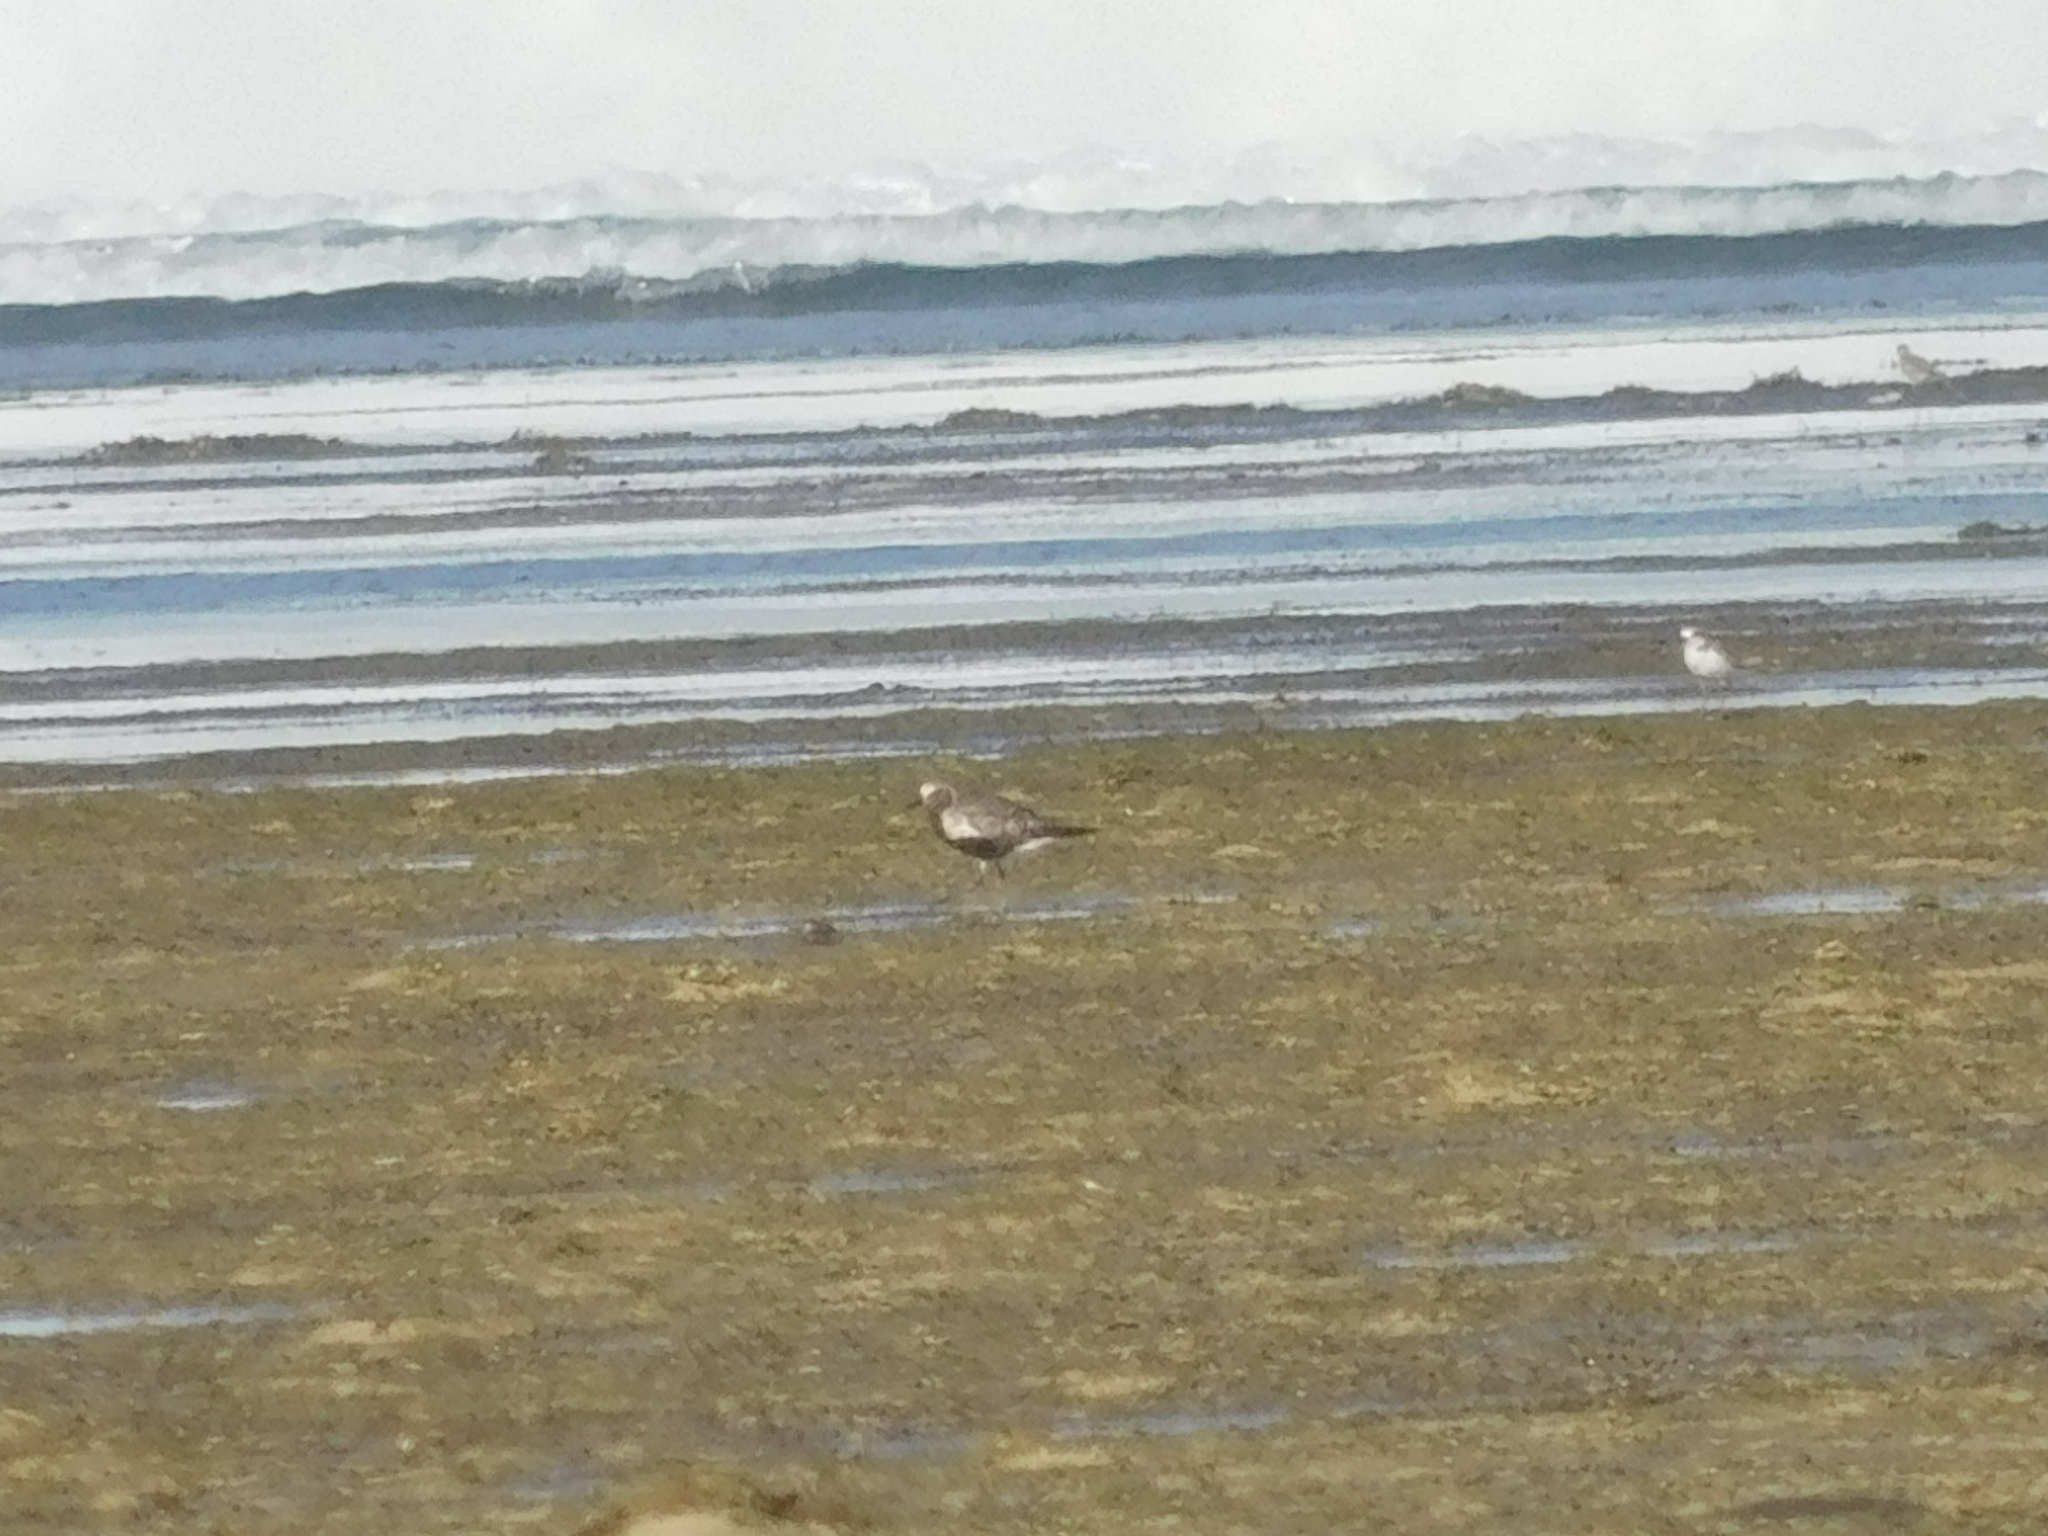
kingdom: Animalia
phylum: Chordata
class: Aves
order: Charadriiformes
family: Charadriidae
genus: Pluvialis
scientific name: Pluvialis squatarola
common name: Grey plover
